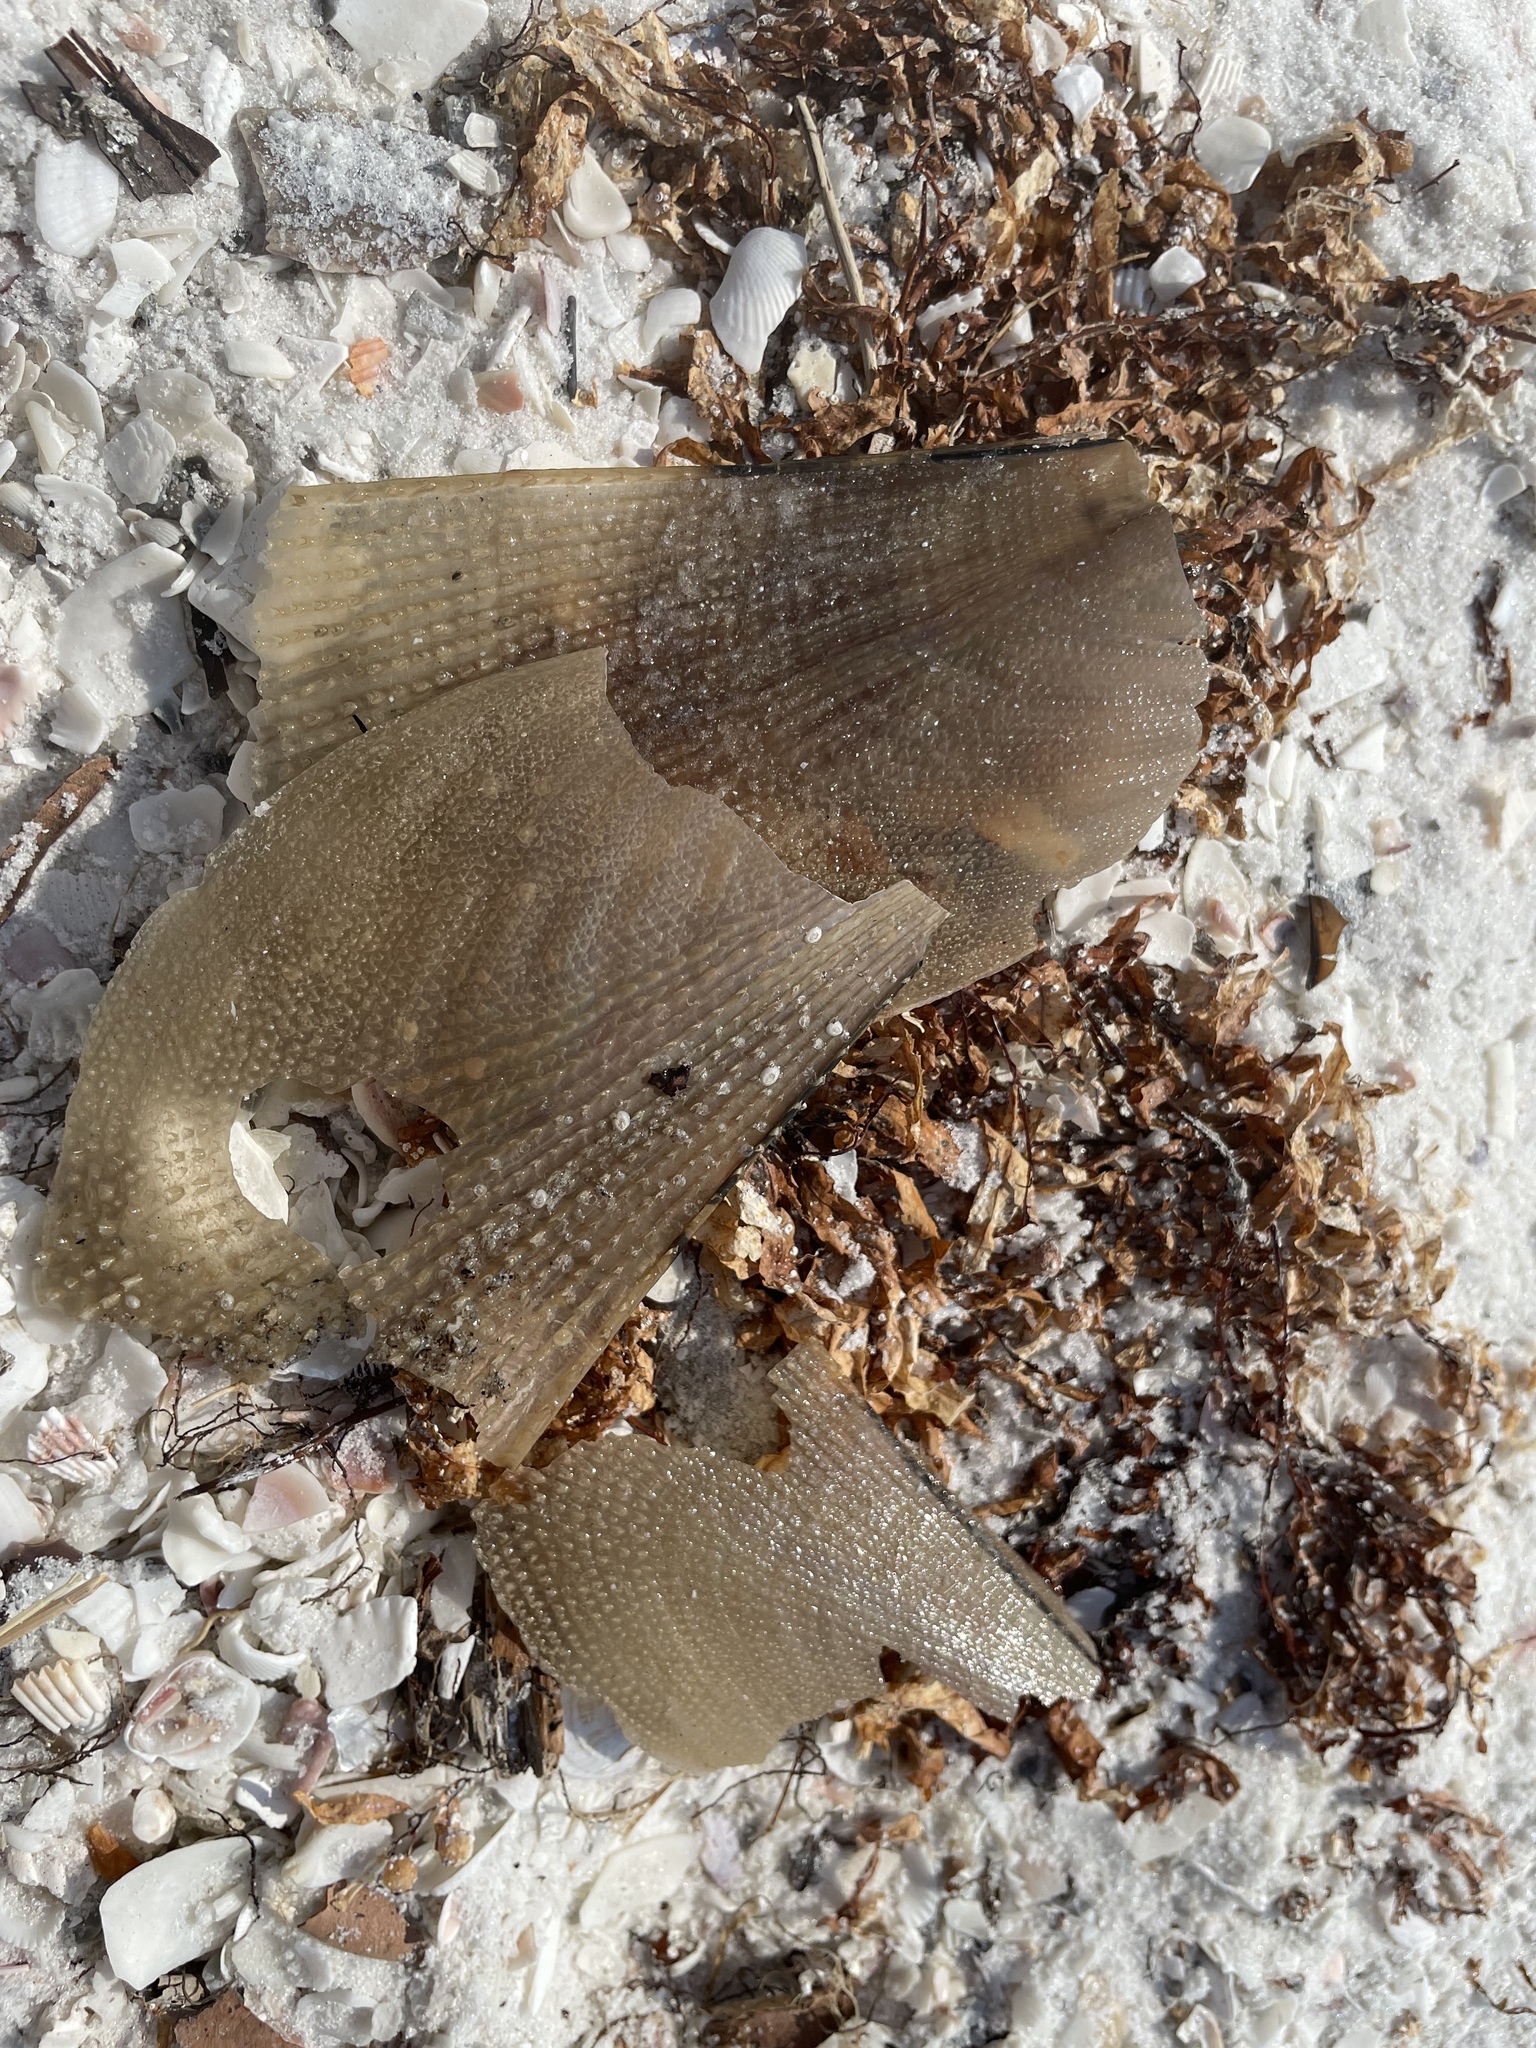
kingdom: Animalia
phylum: Mollusca
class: Bivalvia
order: Ostreida
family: Pinnidae
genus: Atrina
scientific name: Atrina serrata
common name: Saw-toothed penshell
